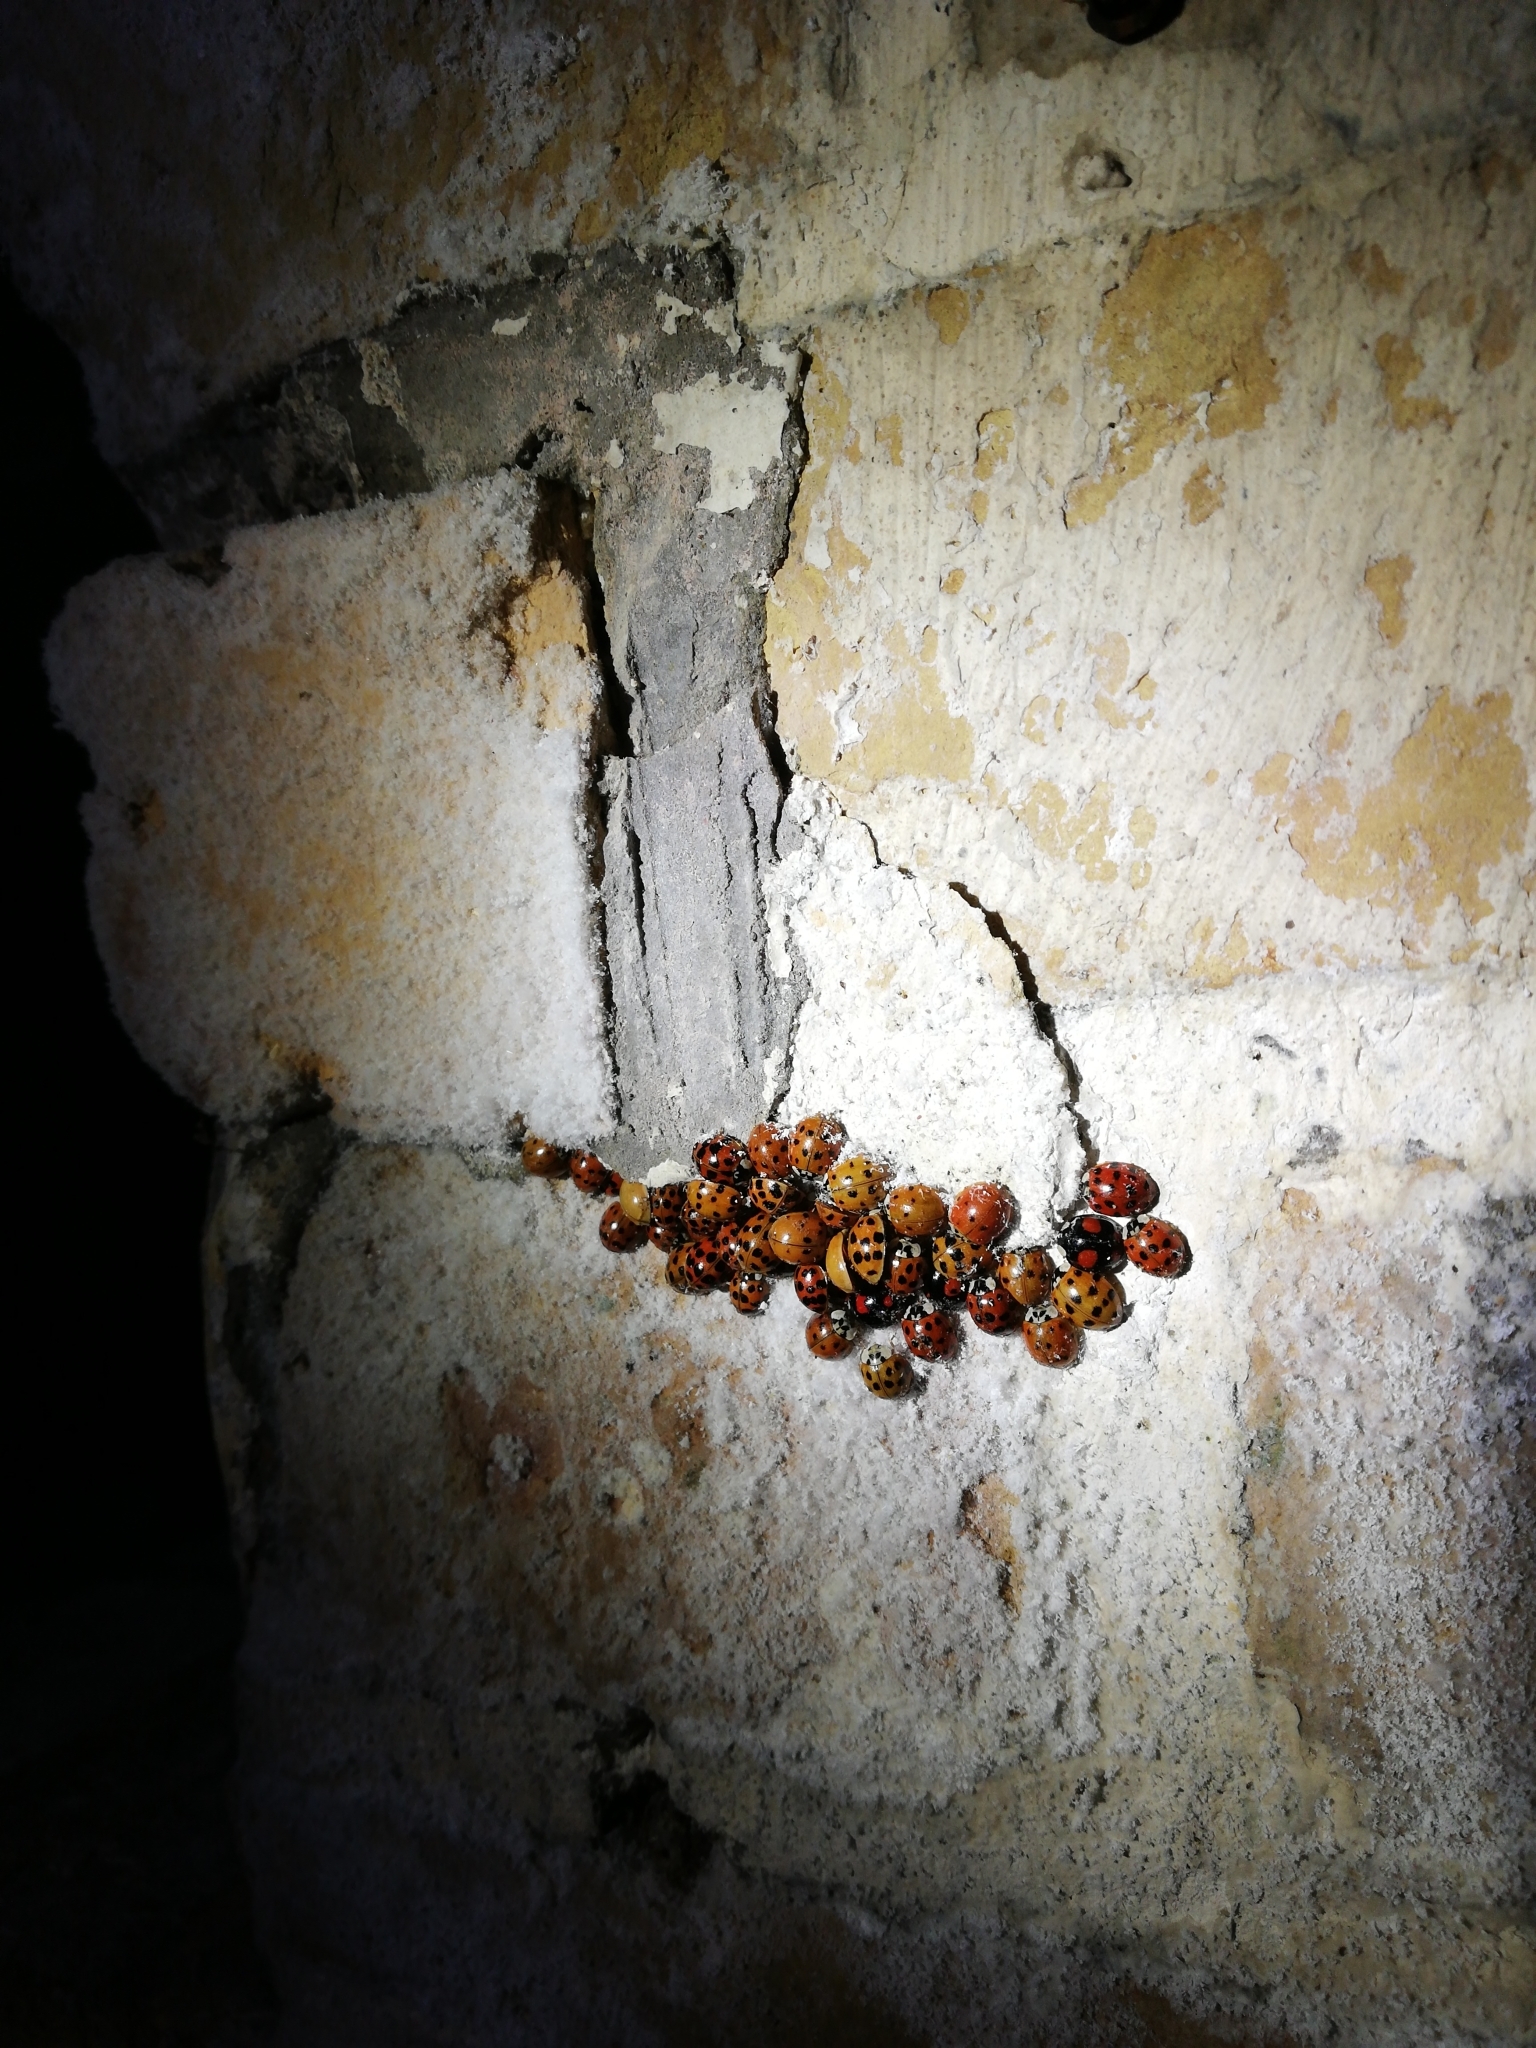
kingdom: Animalia
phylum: Arthropoda
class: Insecta
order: Coleoptera
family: Coccinellidae
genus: Harmonia
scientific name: Harmonia axyridis
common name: Harlequin ladybird
